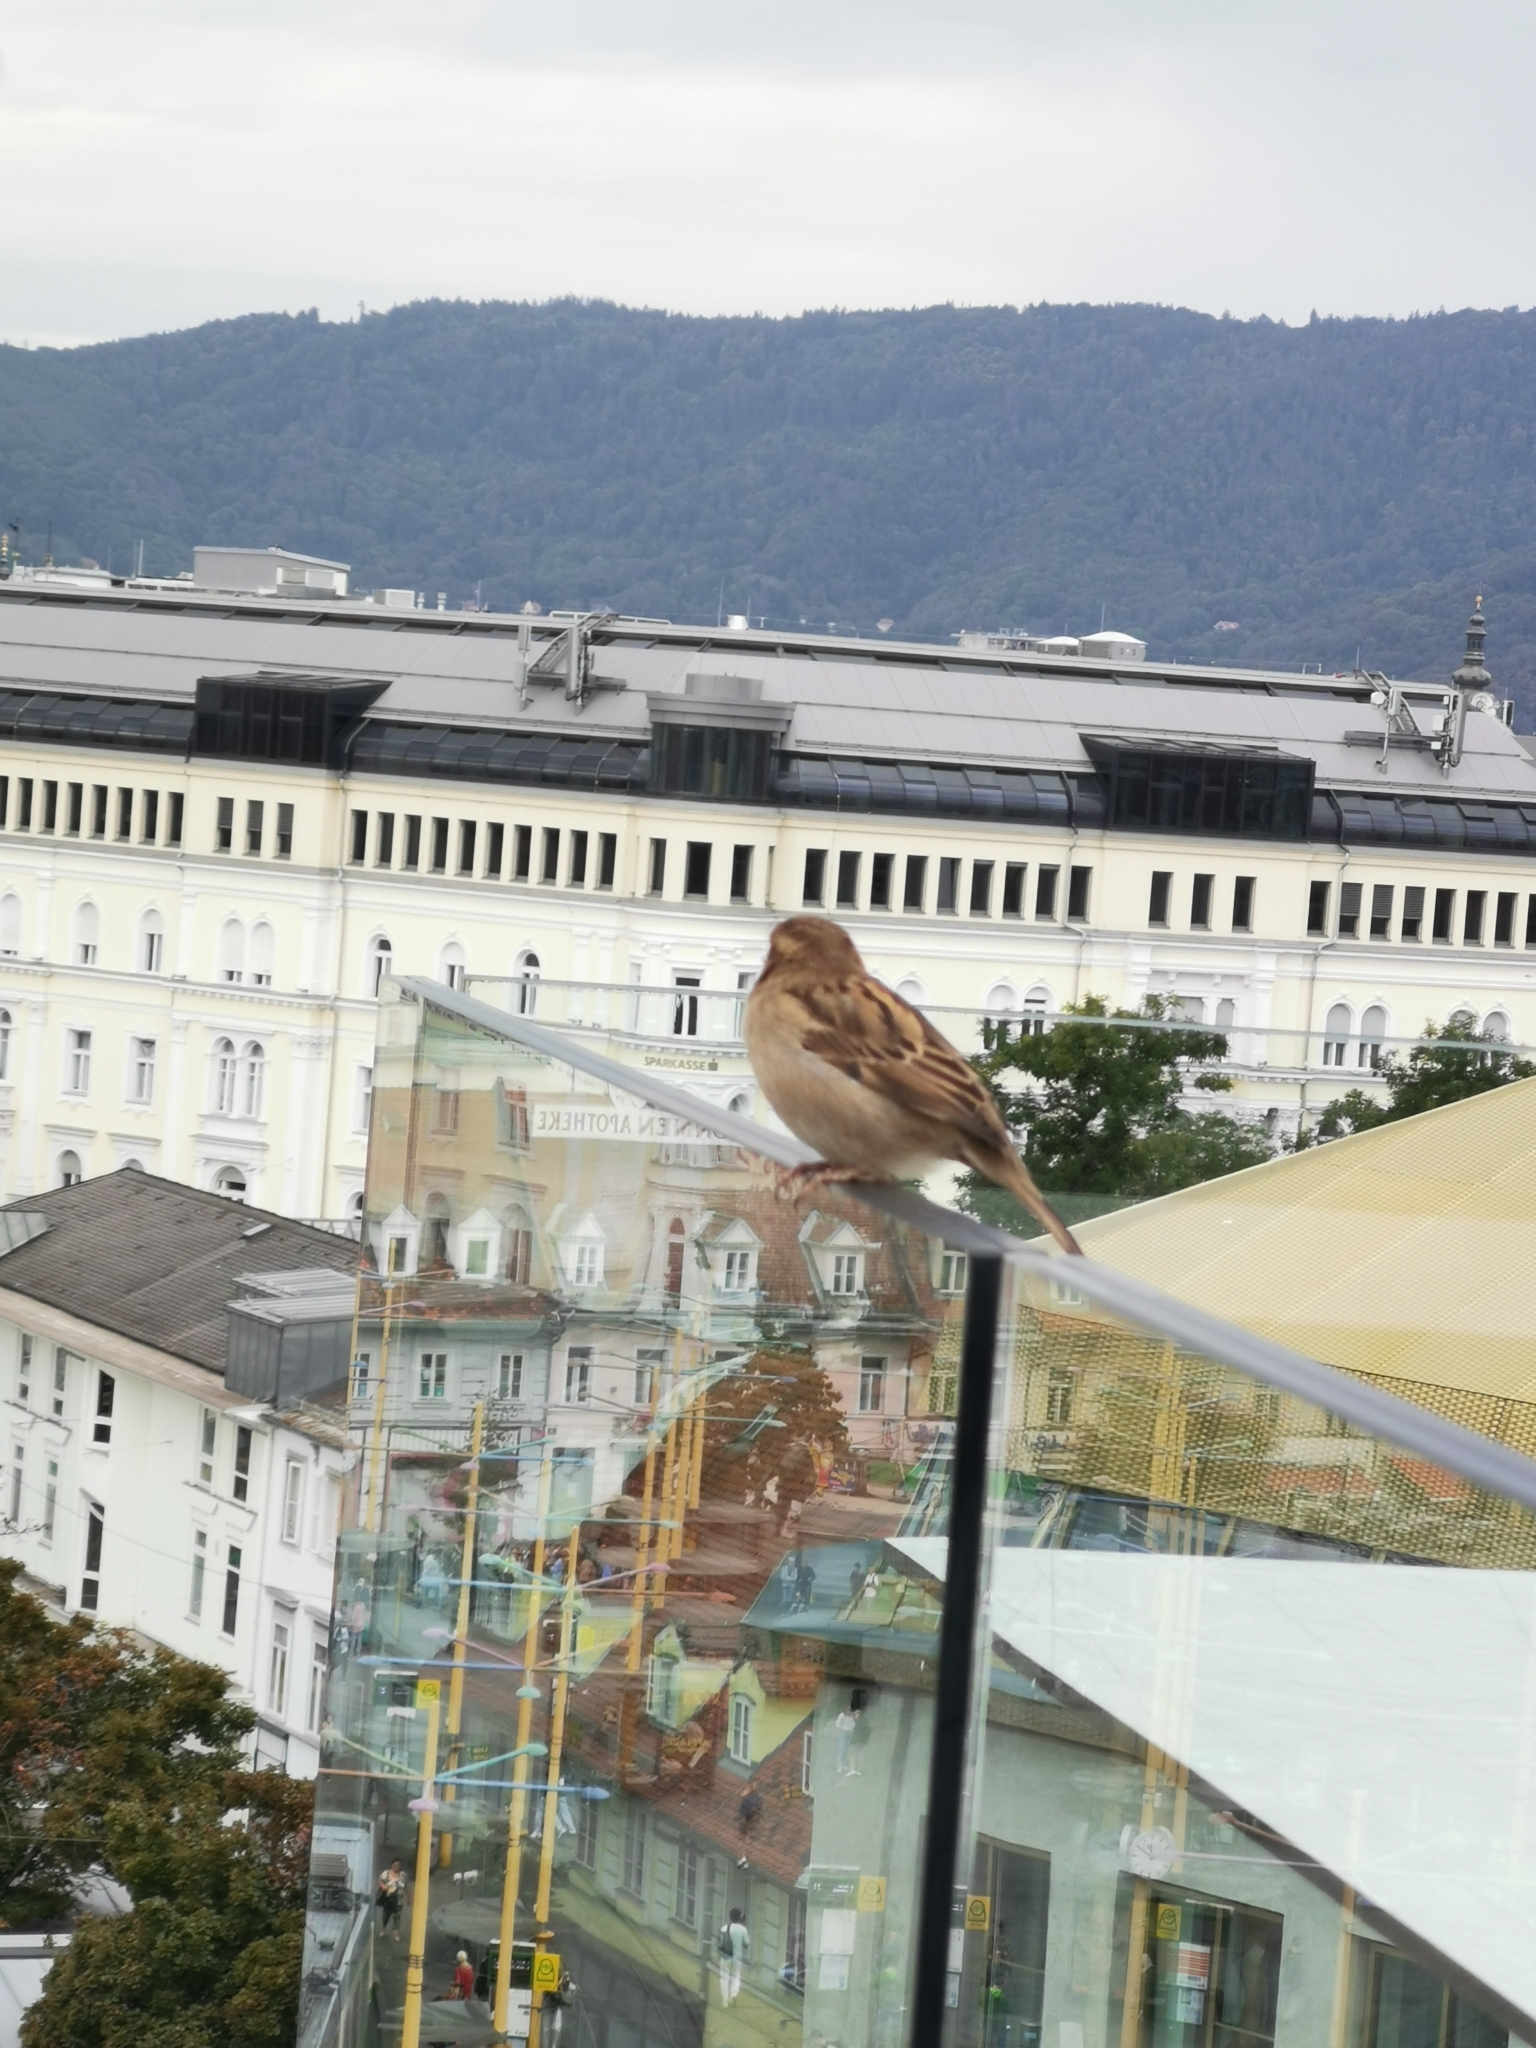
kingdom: Animalia
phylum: Chordata
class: Aves
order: Passeriformes
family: Passeridae
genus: Passer
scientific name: Passer domesticus
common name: House sparrow
